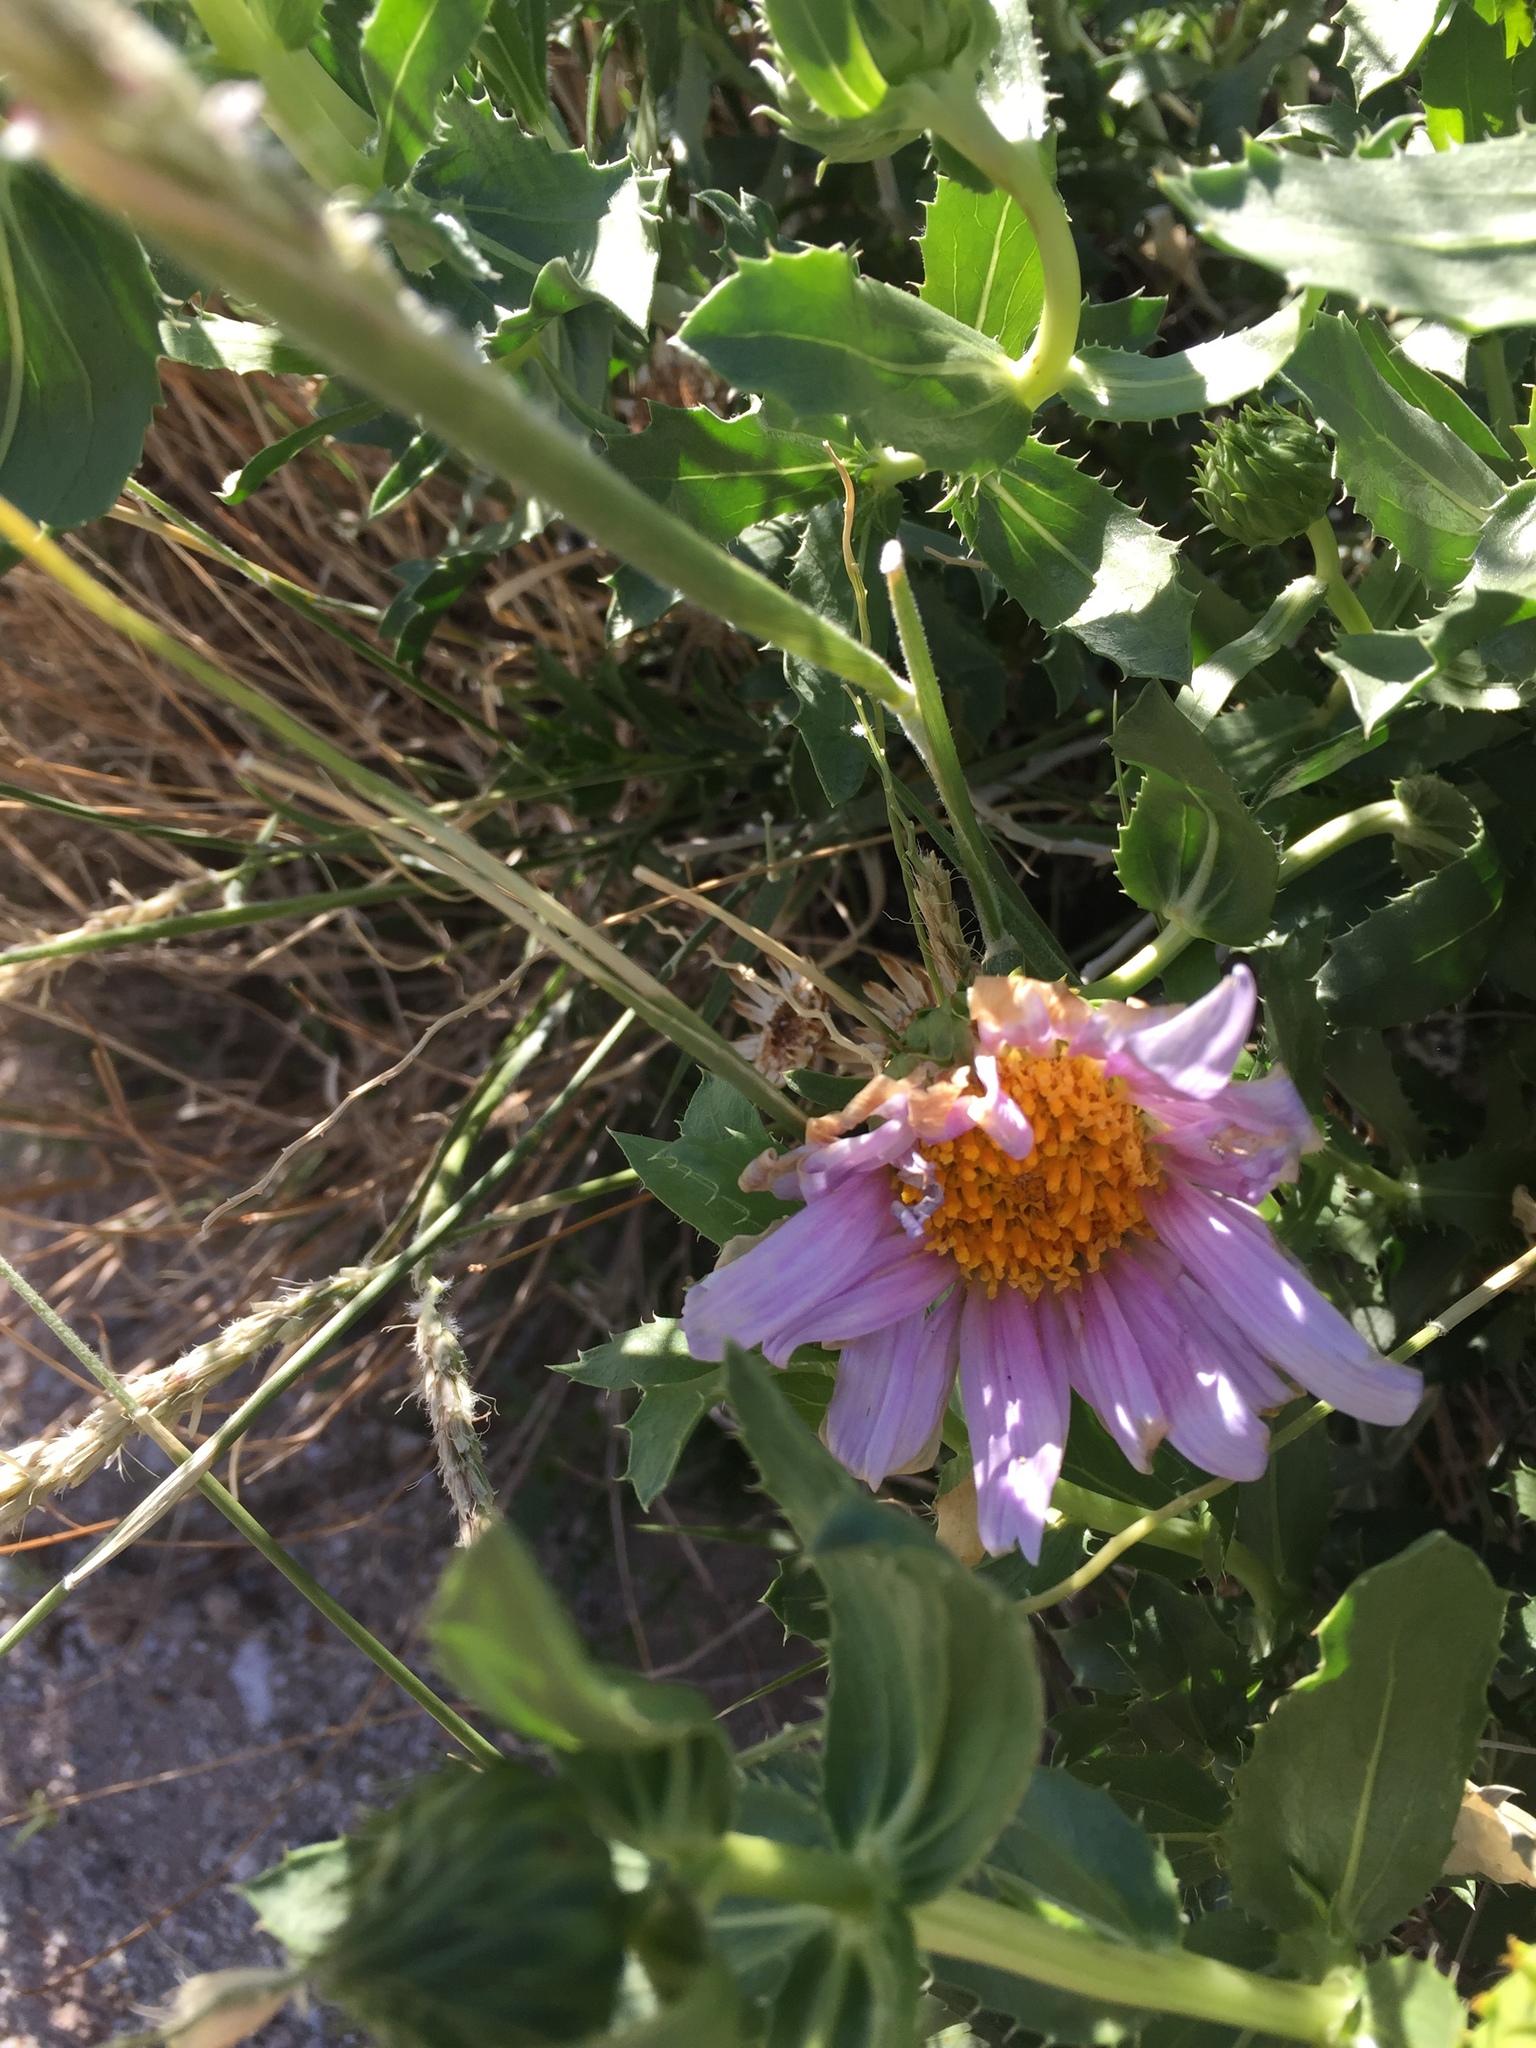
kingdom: Plantae
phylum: Tracheophyta
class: Magnoliopsida
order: Asterales
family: Asteraceae
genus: Xylorhiza
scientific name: Xylorhiza orcuttii
